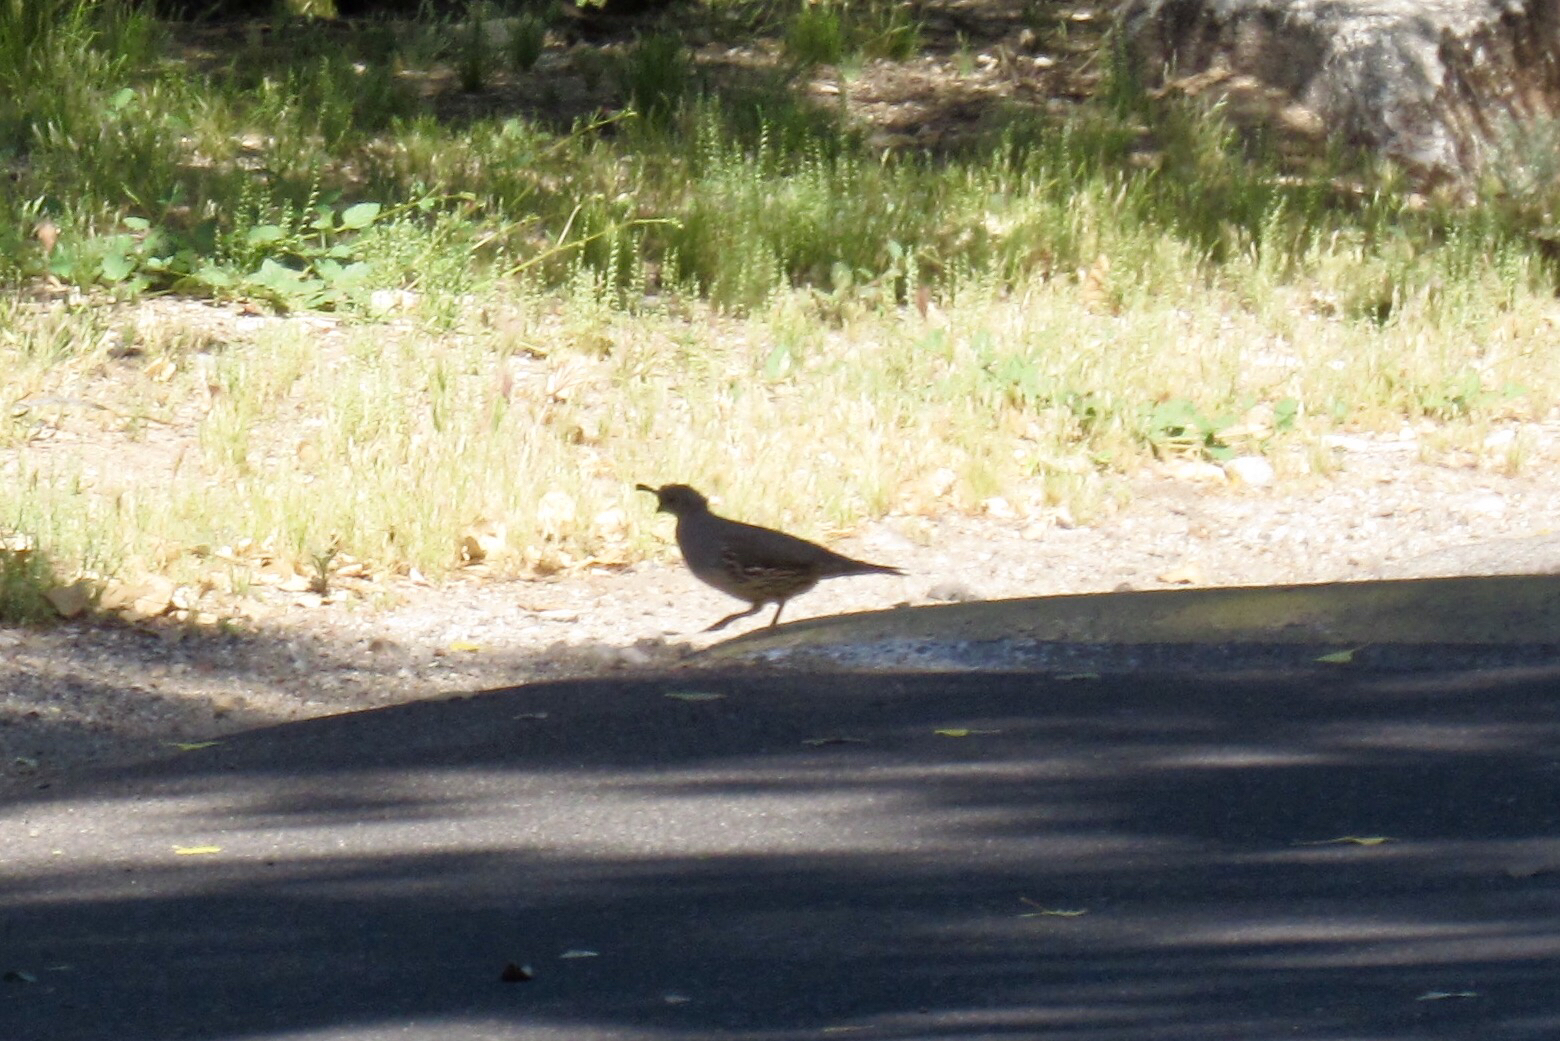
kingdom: Animalia
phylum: Chordata
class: Aves
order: Galliformes
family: Odontophoridae
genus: Callipepla
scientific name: Callipepla gambelii
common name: Gambel's quail
